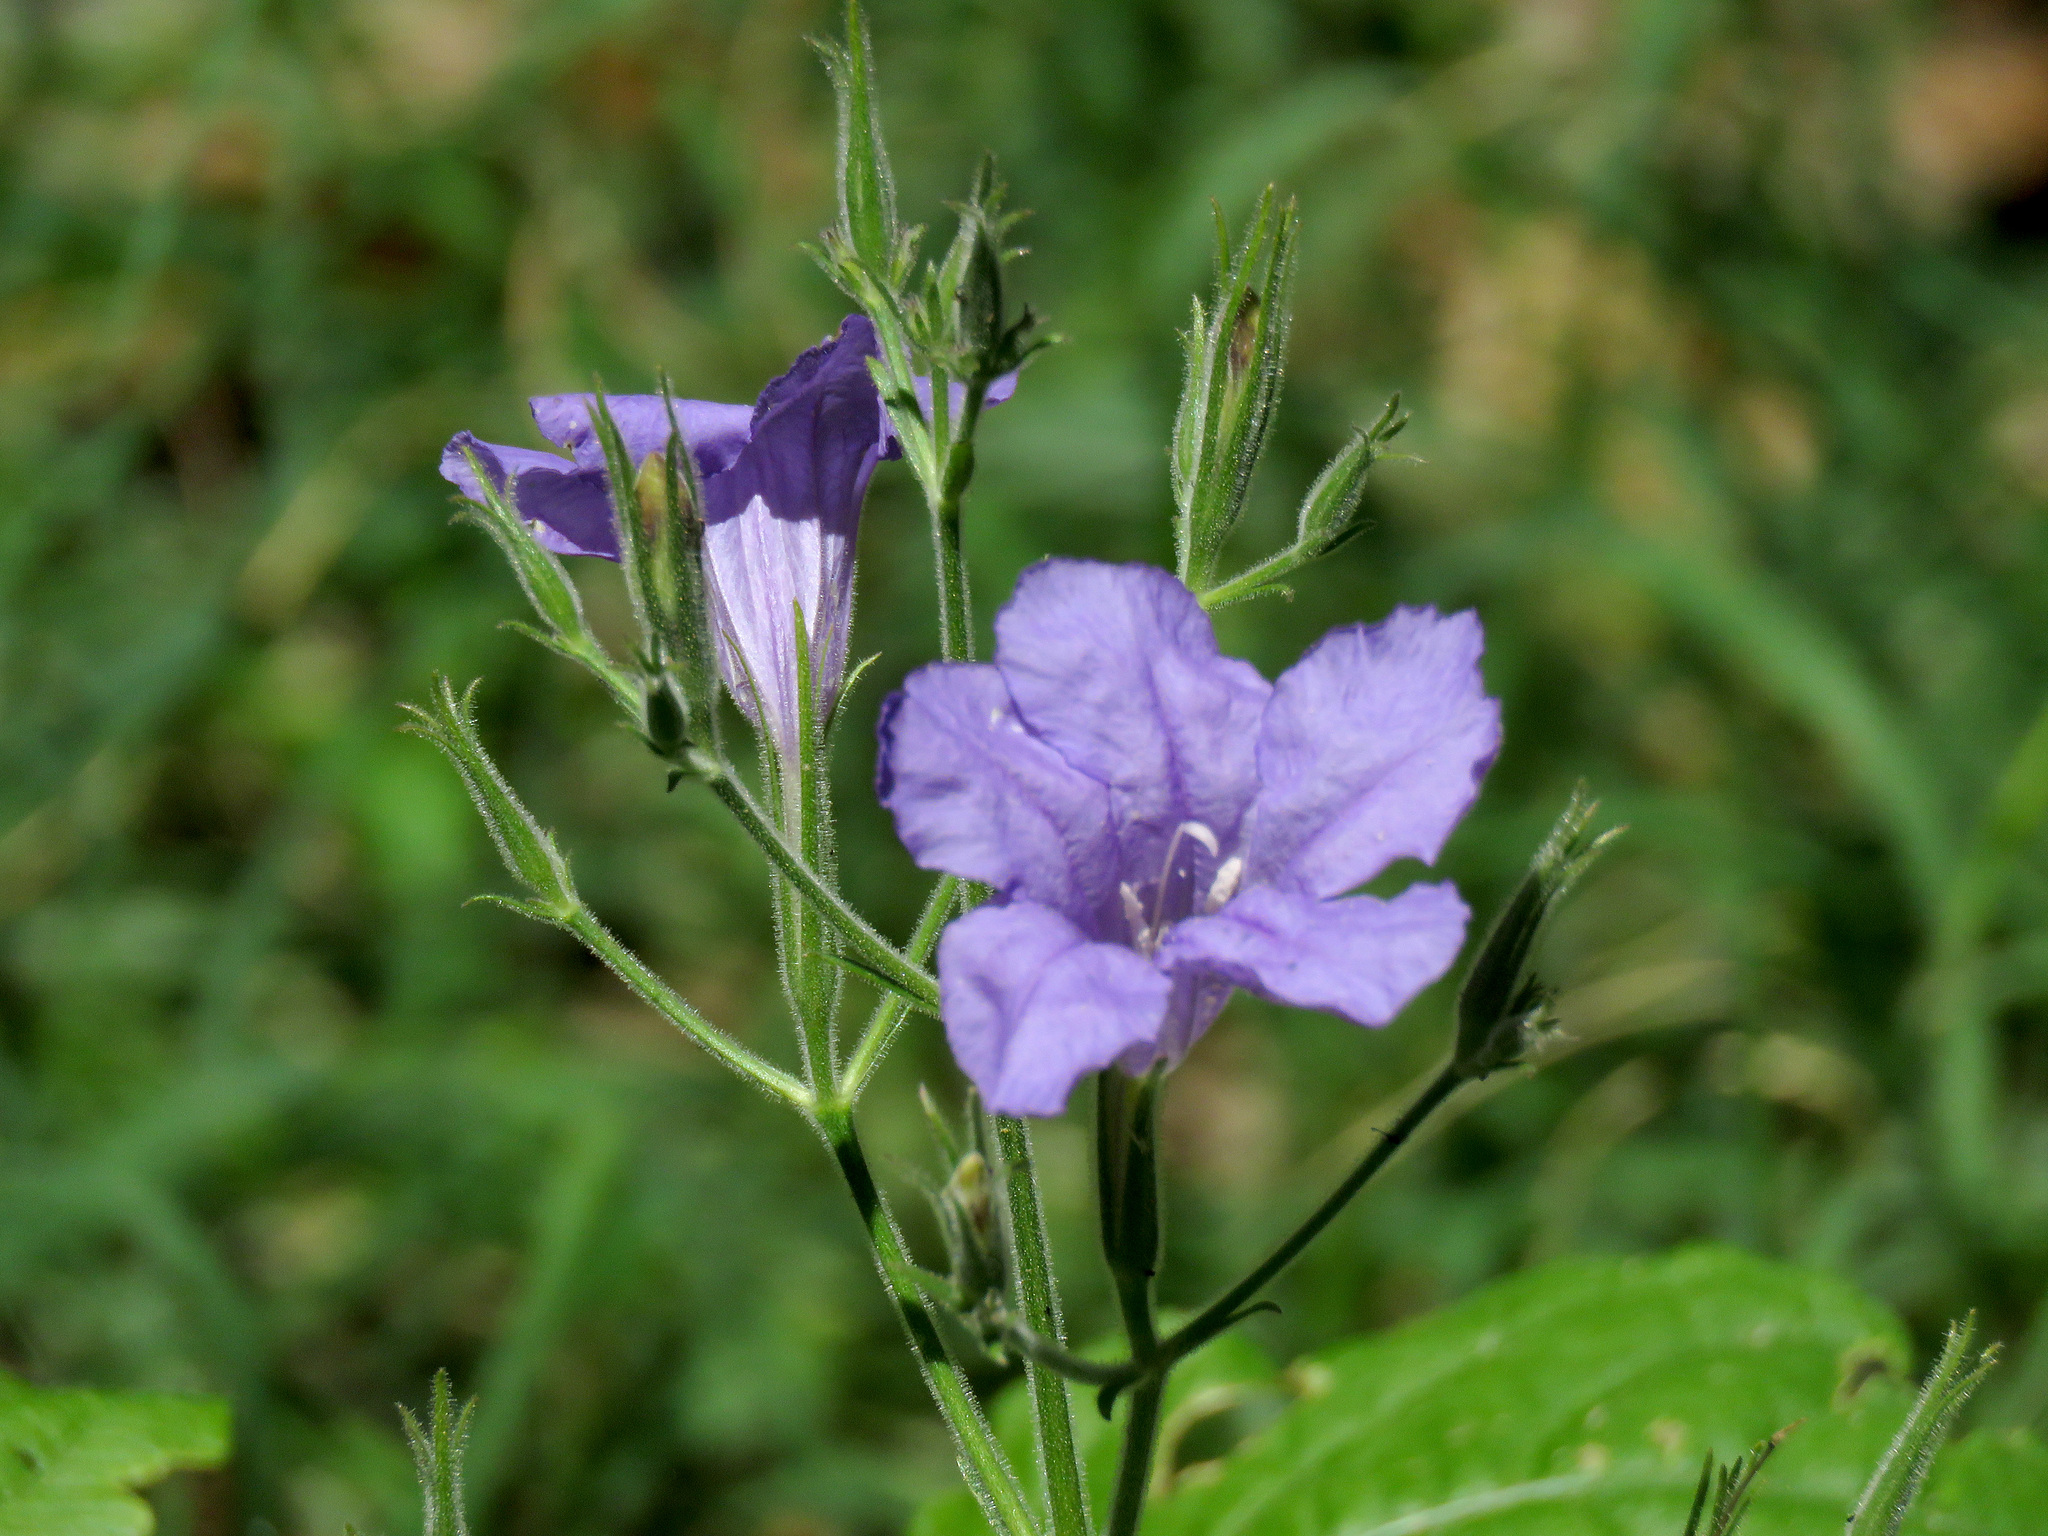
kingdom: Plantae
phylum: Tracheophyta
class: Magnoliopsida
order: Lamiales
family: Acanthaceae
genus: Ruellia
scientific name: Ruellia ciliatiflora
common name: Hairyflower wild petunia
